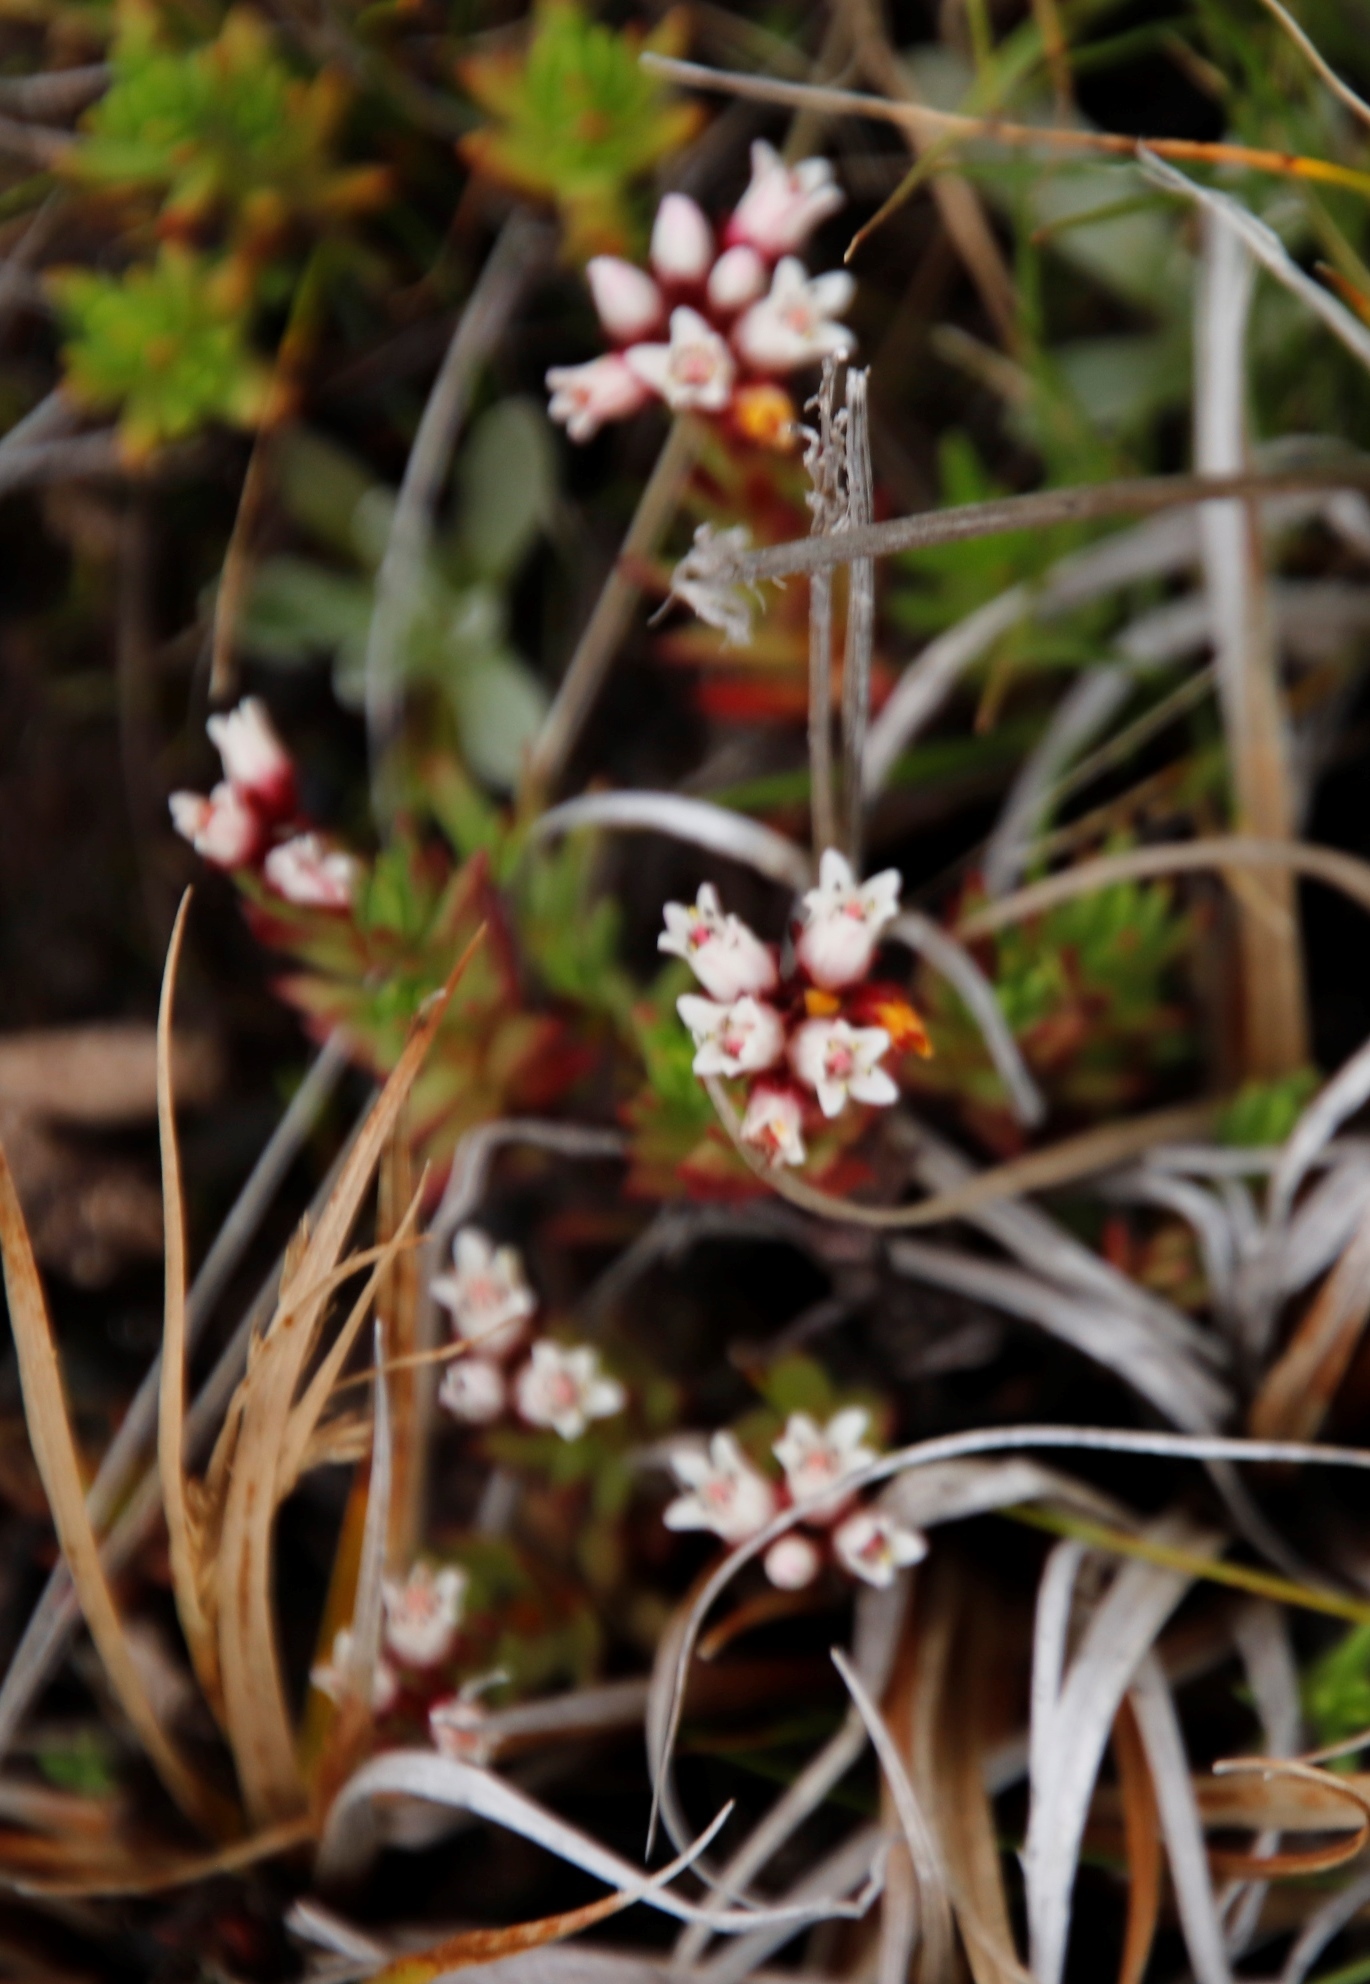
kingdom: Plantae
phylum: Tracheophyta
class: Magnoliopsida
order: Saxifragales
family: Crassulaceae
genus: Crassula
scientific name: Crassula dependens
